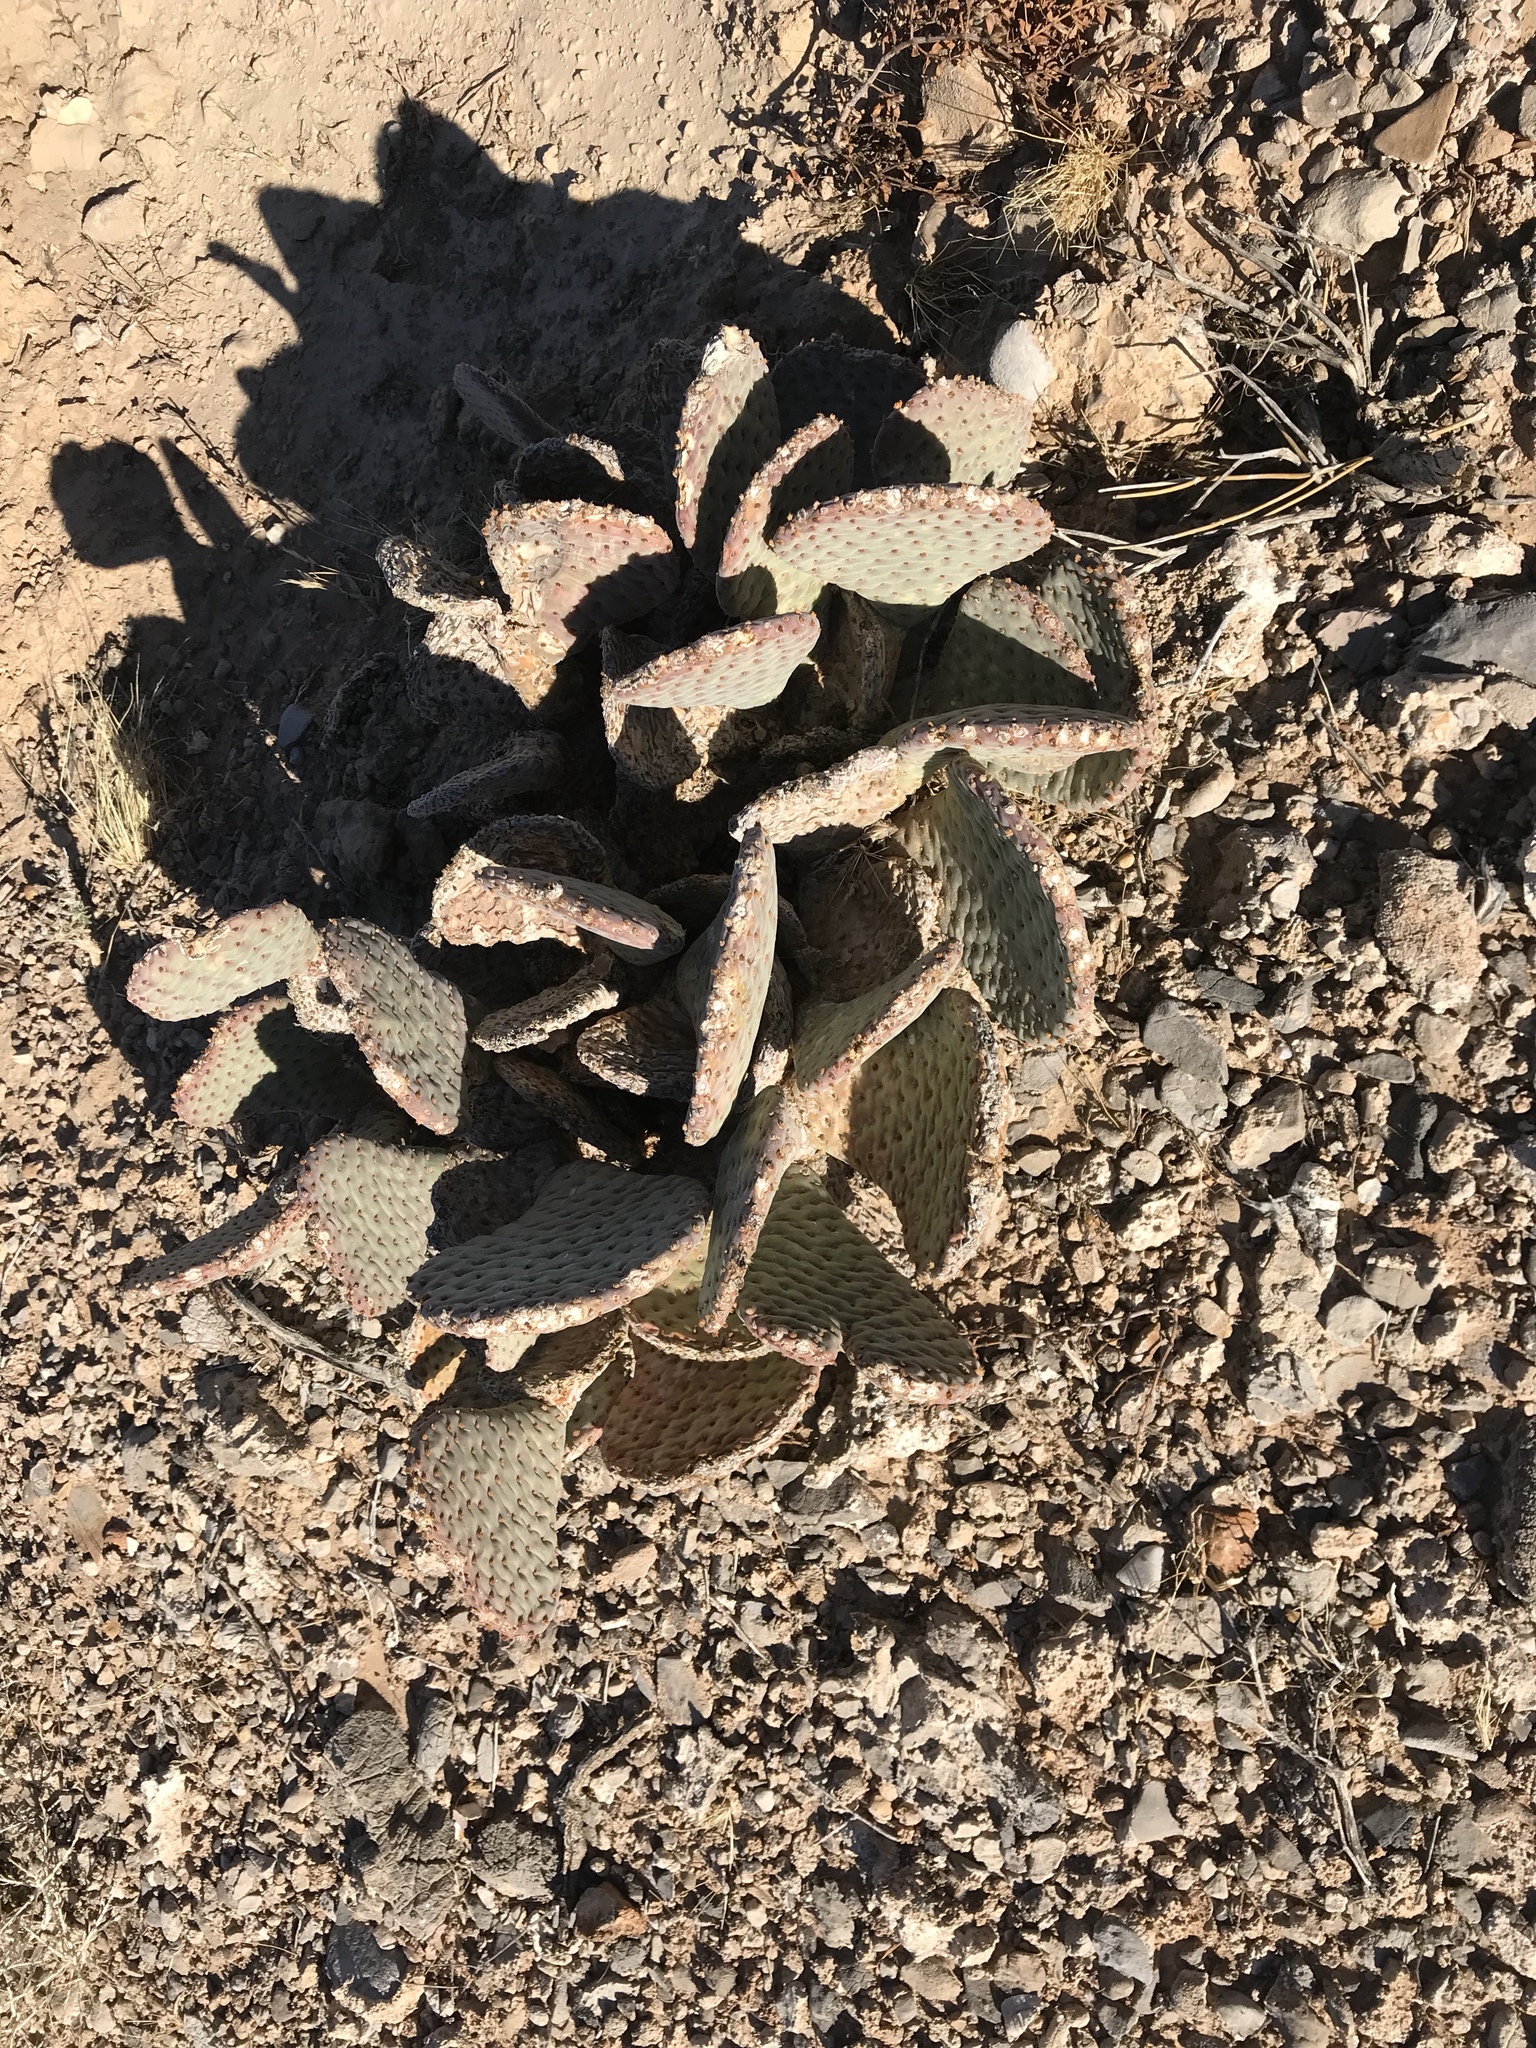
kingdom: Plantae
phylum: Tracheophyta
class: Magnoliopsida
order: Caryophyllales
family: Cactaceae
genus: Opuntia
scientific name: Opuntia basilaris
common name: Beavertail prickly-pear
